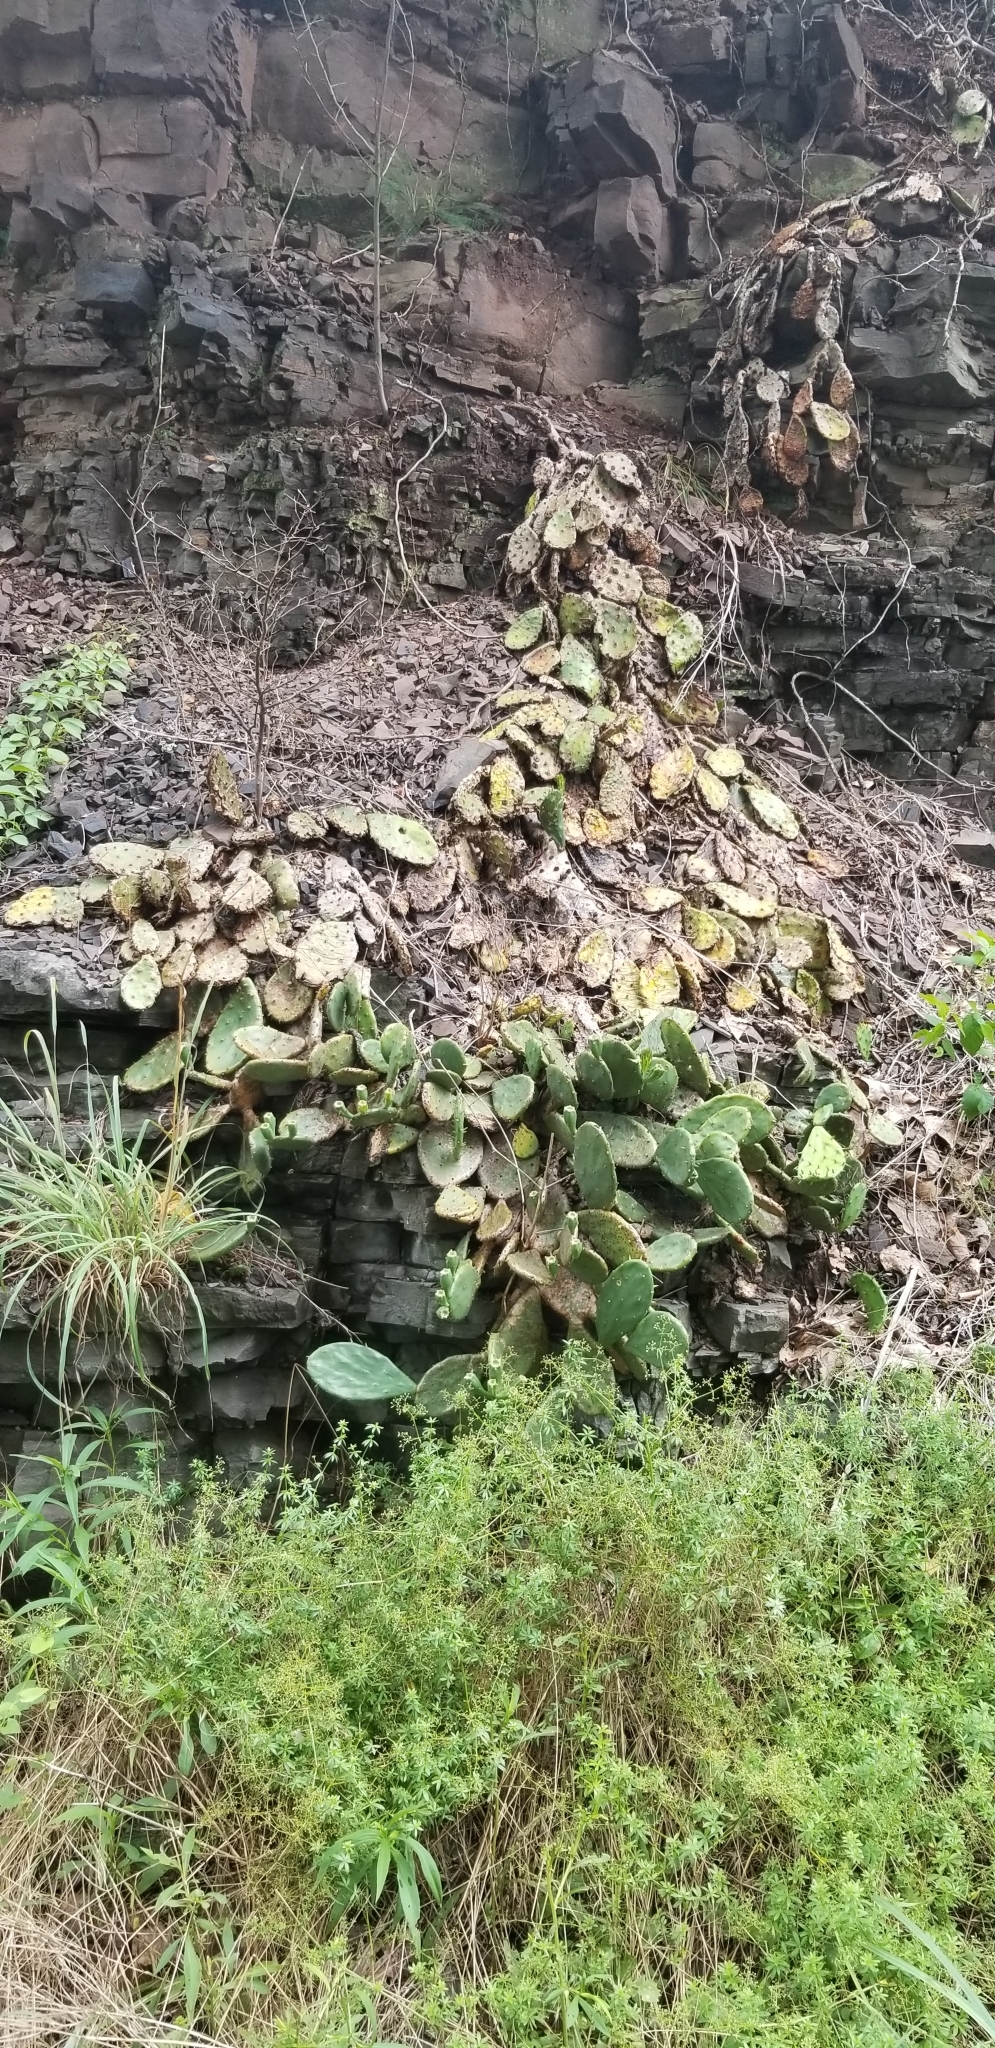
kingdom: Plantae
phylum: Tracheophyta
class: Magnoliopsida
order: Caryophyllales
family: Cactaceae
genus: Opuntia
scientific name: Opuntia humifusa
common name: Eastern prickly-pear
